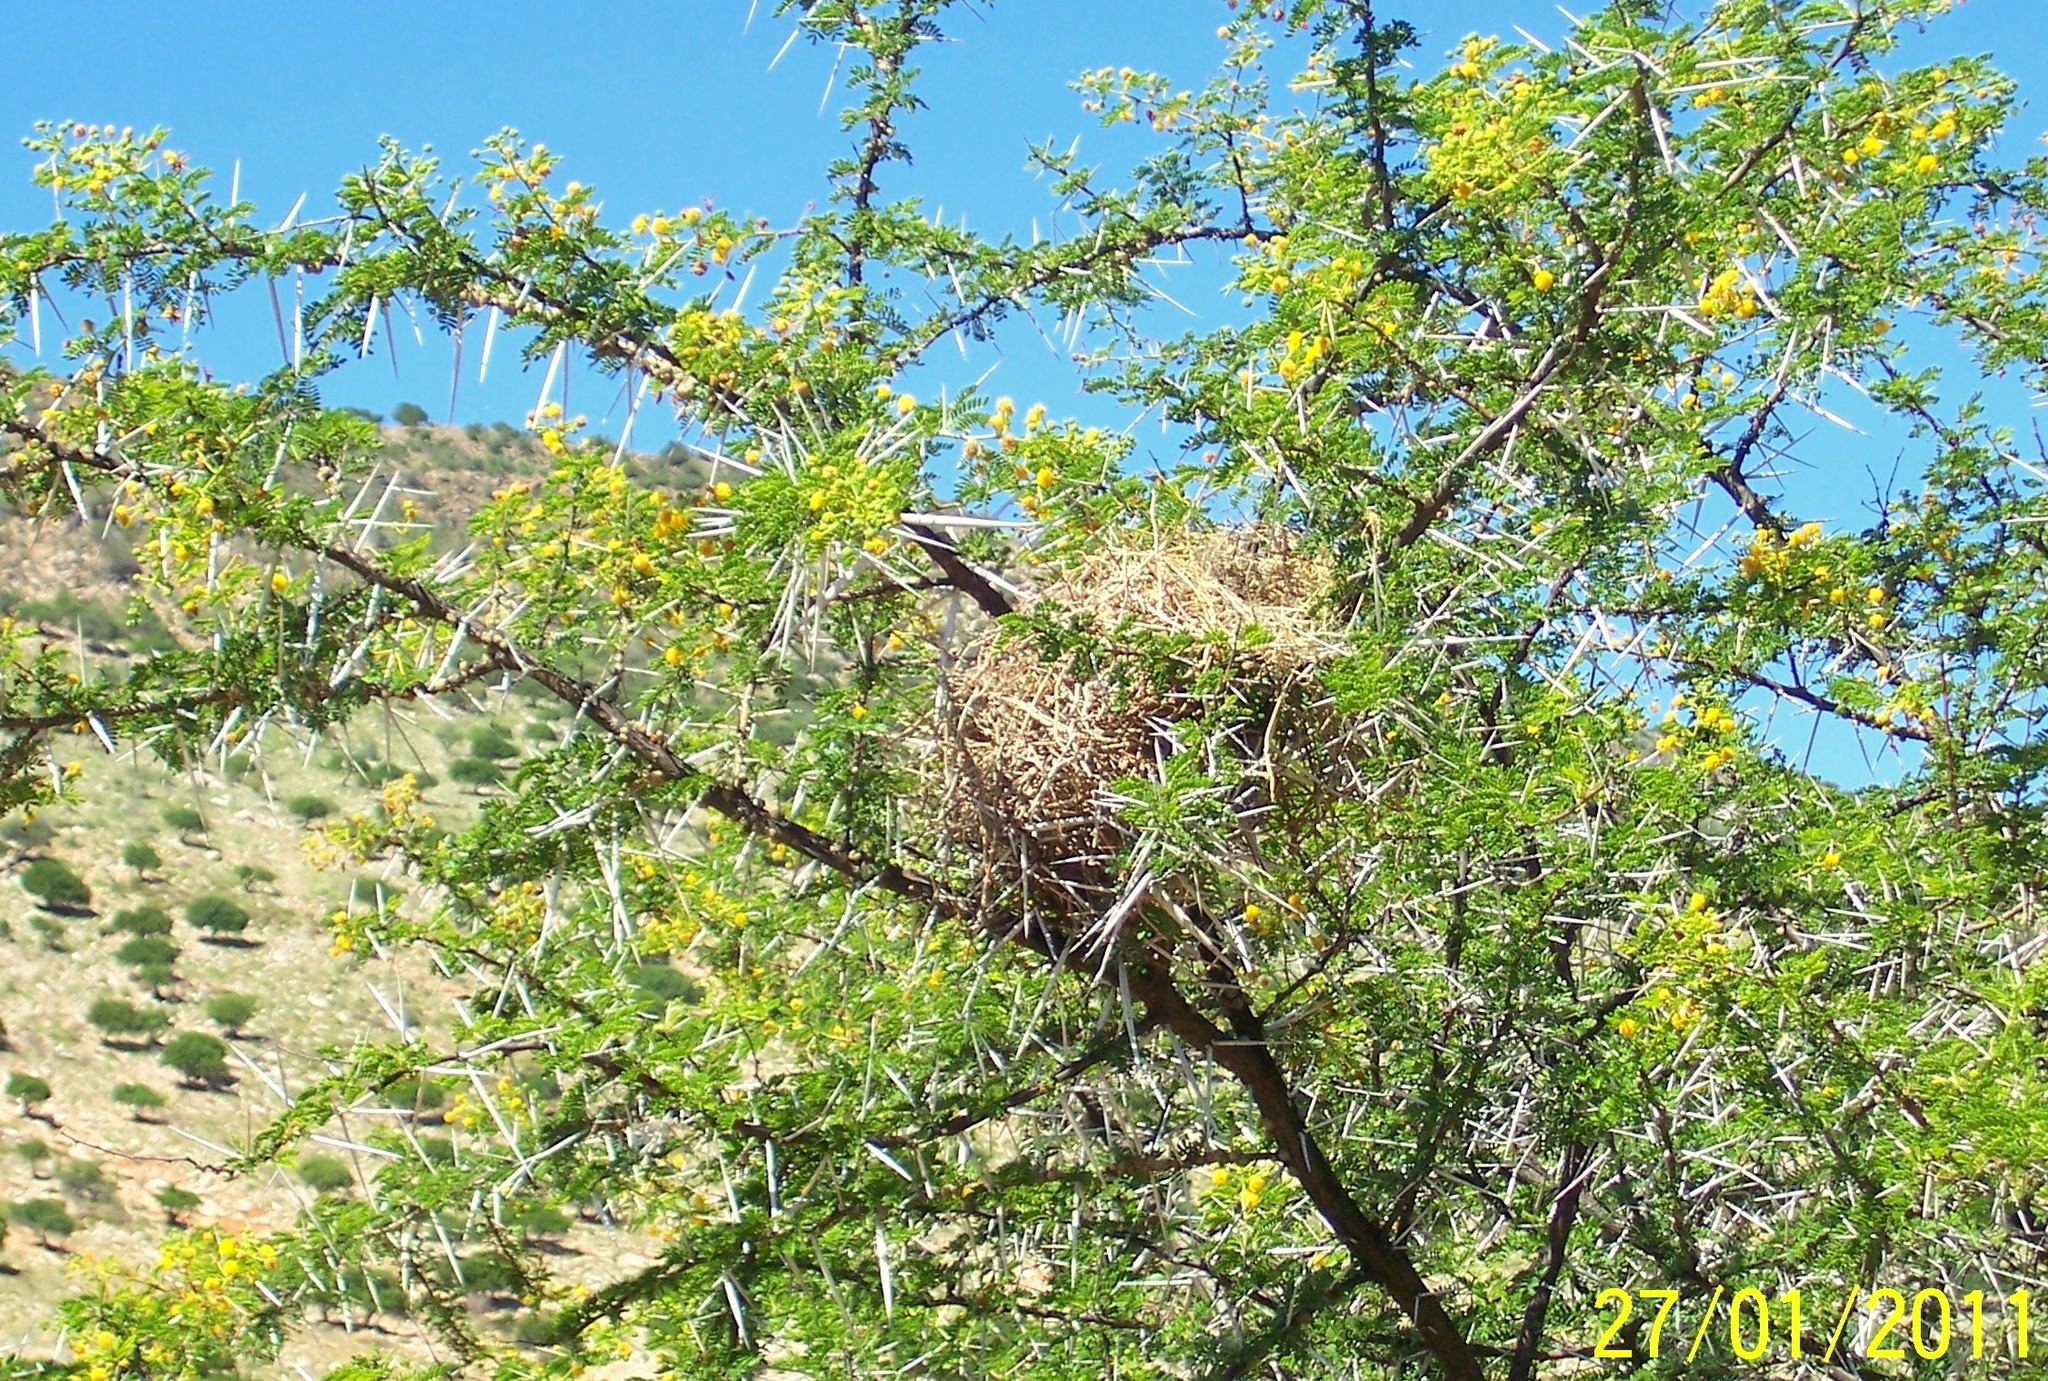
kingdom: Animalia
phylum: Chordata
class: Aves
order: Passeriformes
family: Passeridae
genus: Passer
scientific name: Passer melanurus
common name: Cape sparrow
